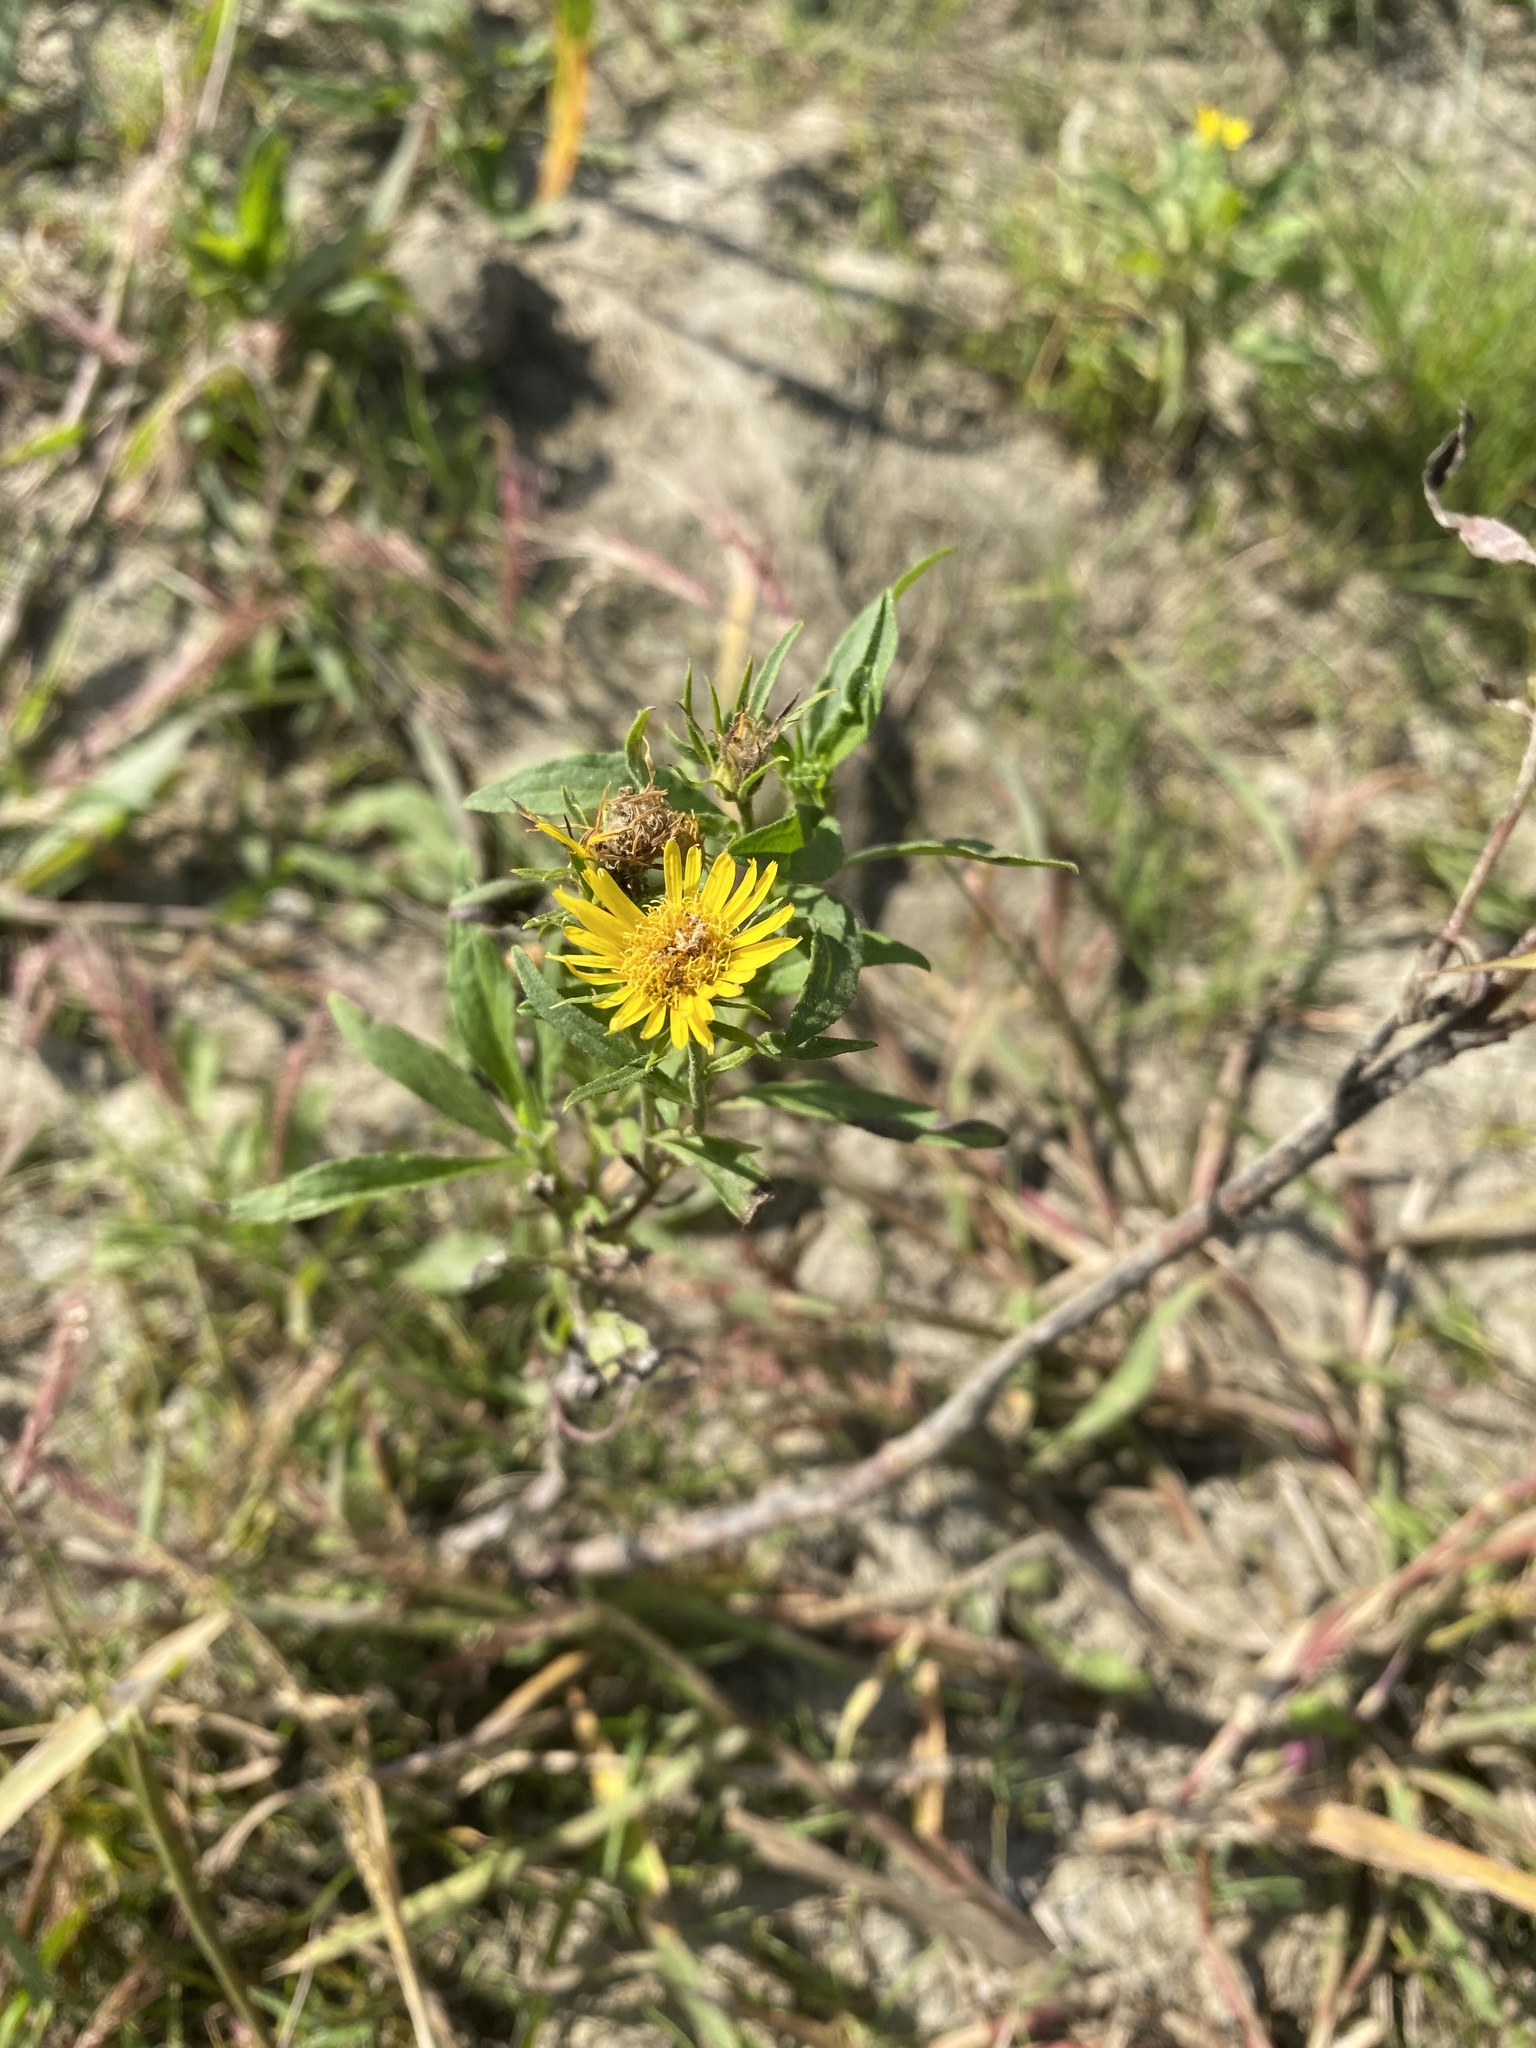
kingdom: Plantae
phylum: Tracheophyta
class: Magnoliopsida
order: Asterales
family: Asteraceae
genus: Pentanema
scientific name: Pentanema britannicum
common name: British elecampane
